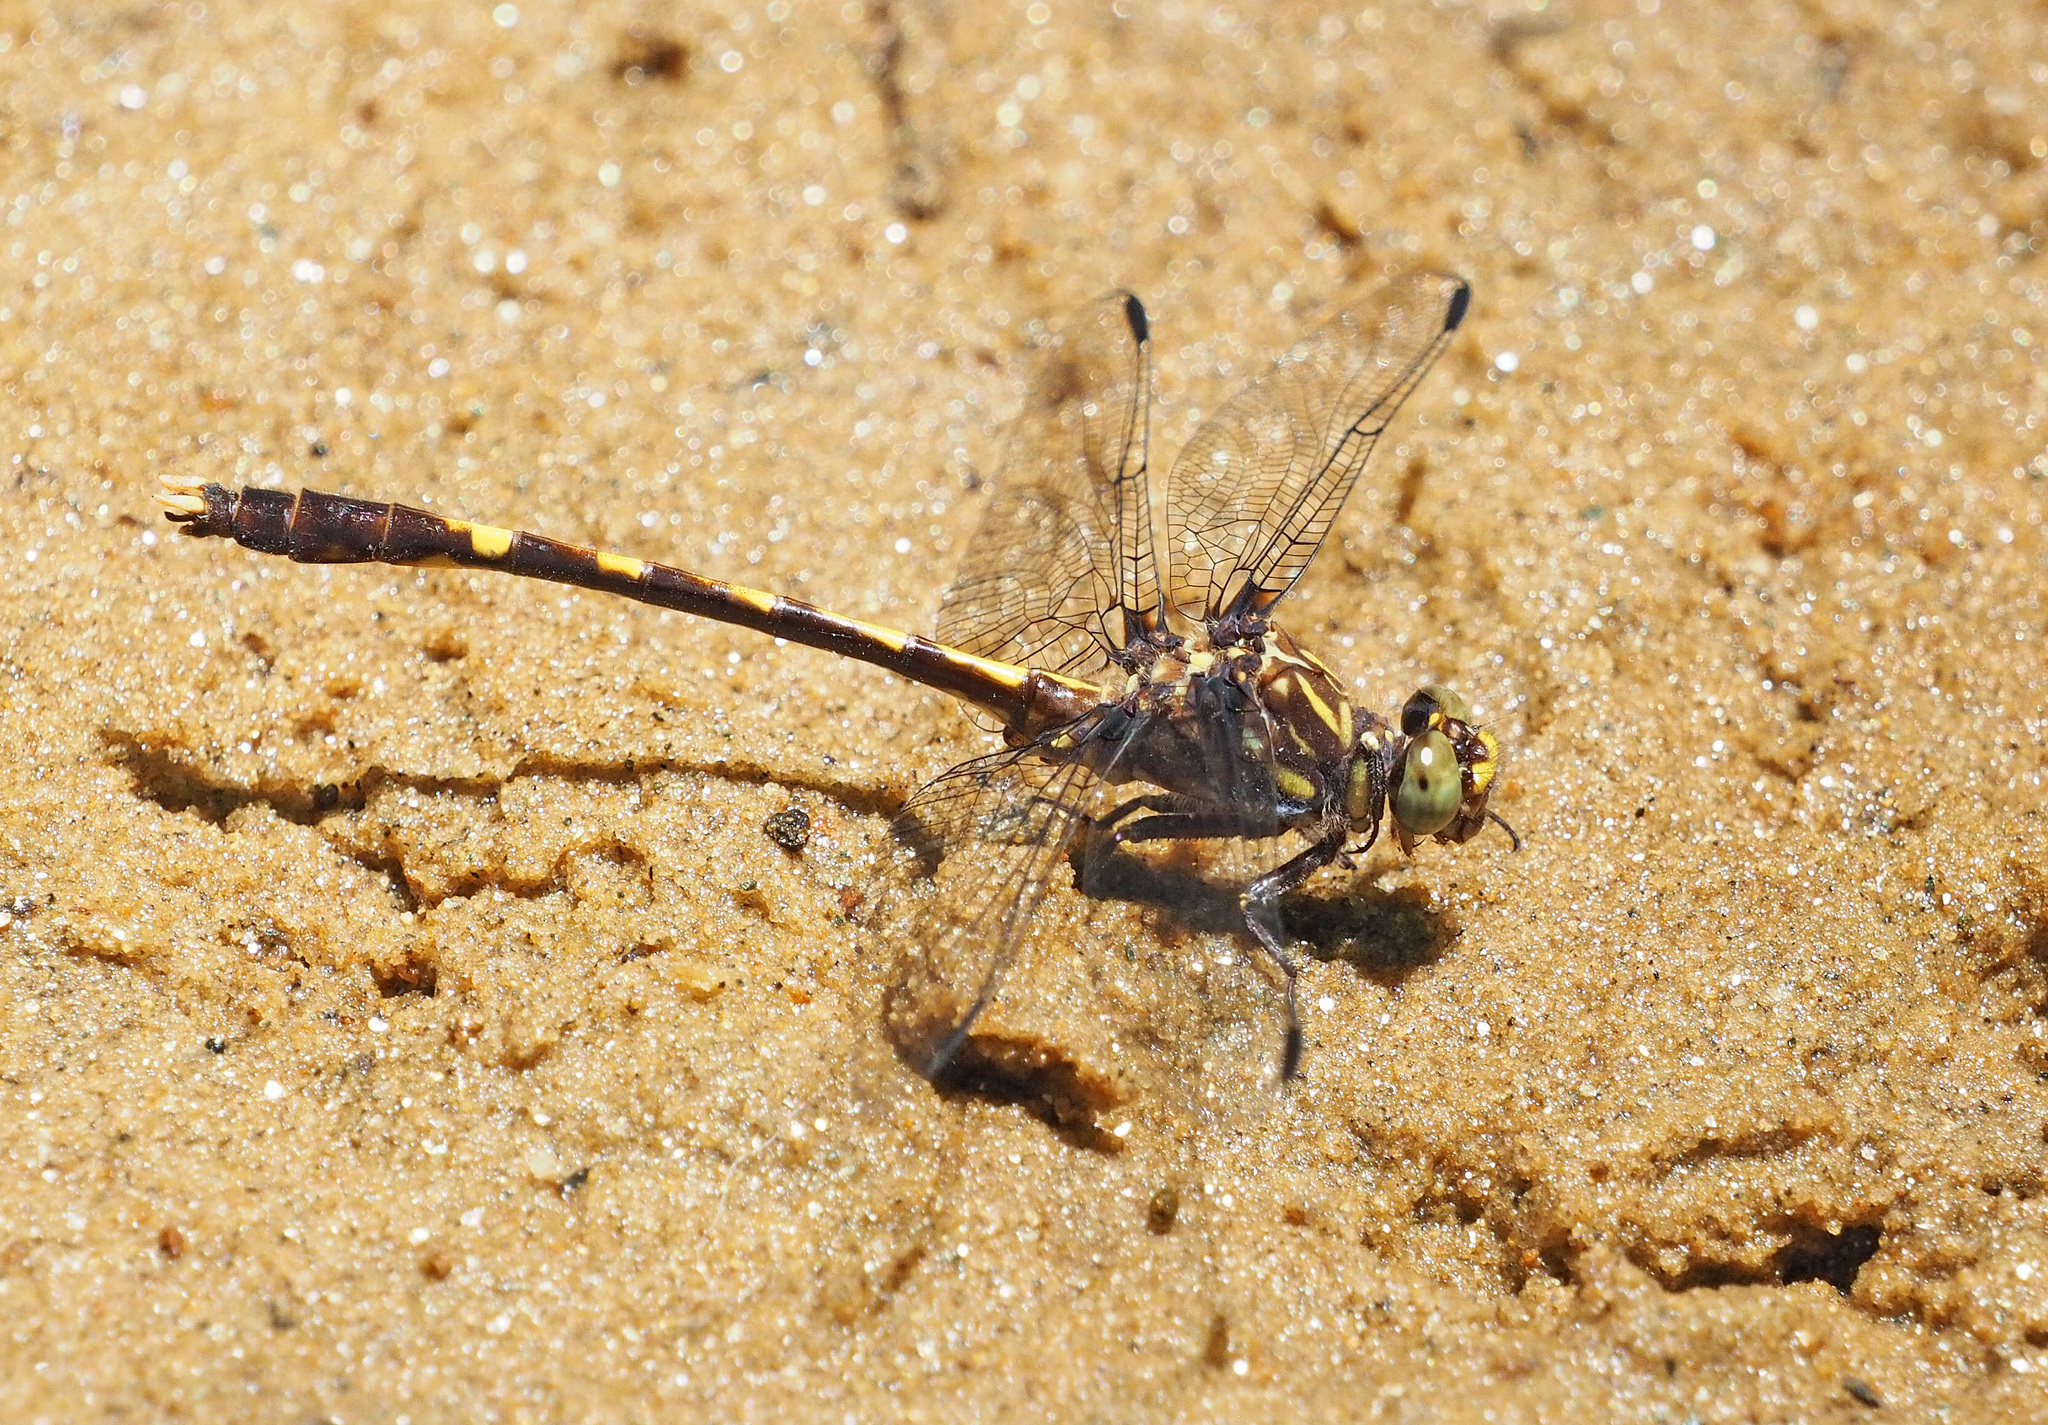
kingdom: Animalia
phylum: Arthropoda
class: Insecta
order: Odonata
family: Gomphidae
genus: Progomphus
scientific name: Progomphus obscurus
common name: Common sanddragon
